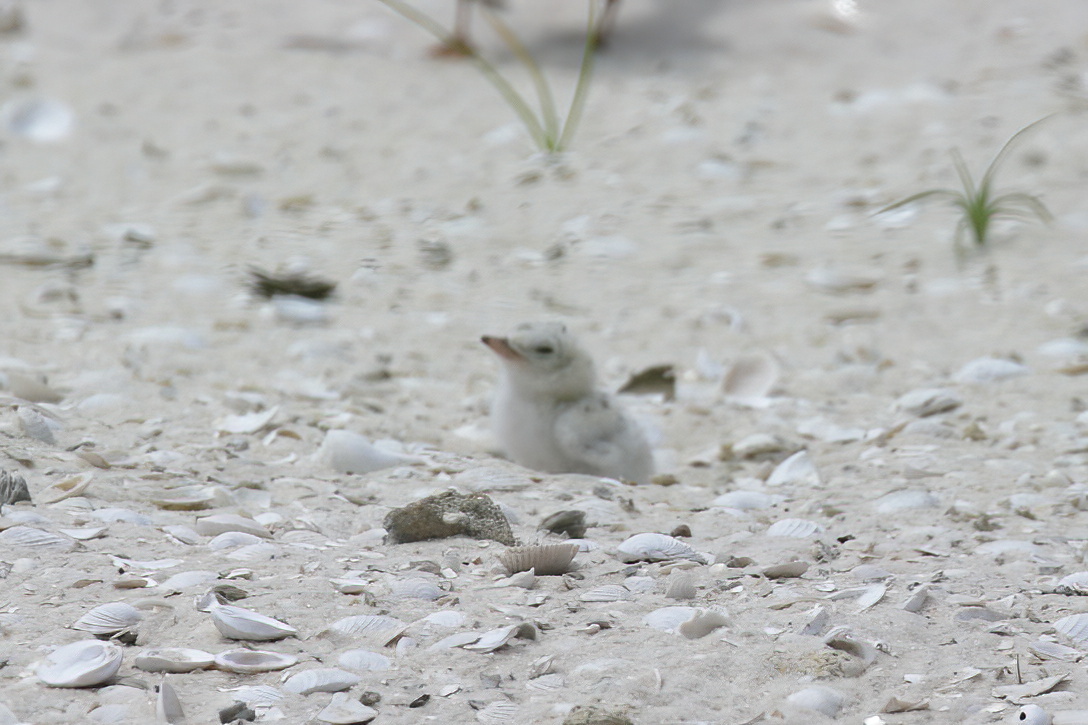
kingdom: Animalia
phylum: Chordata
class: Aves
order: Charadriiformes
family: Laridae
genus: Sternula
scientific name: Sternula antillarum
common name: Least tern
